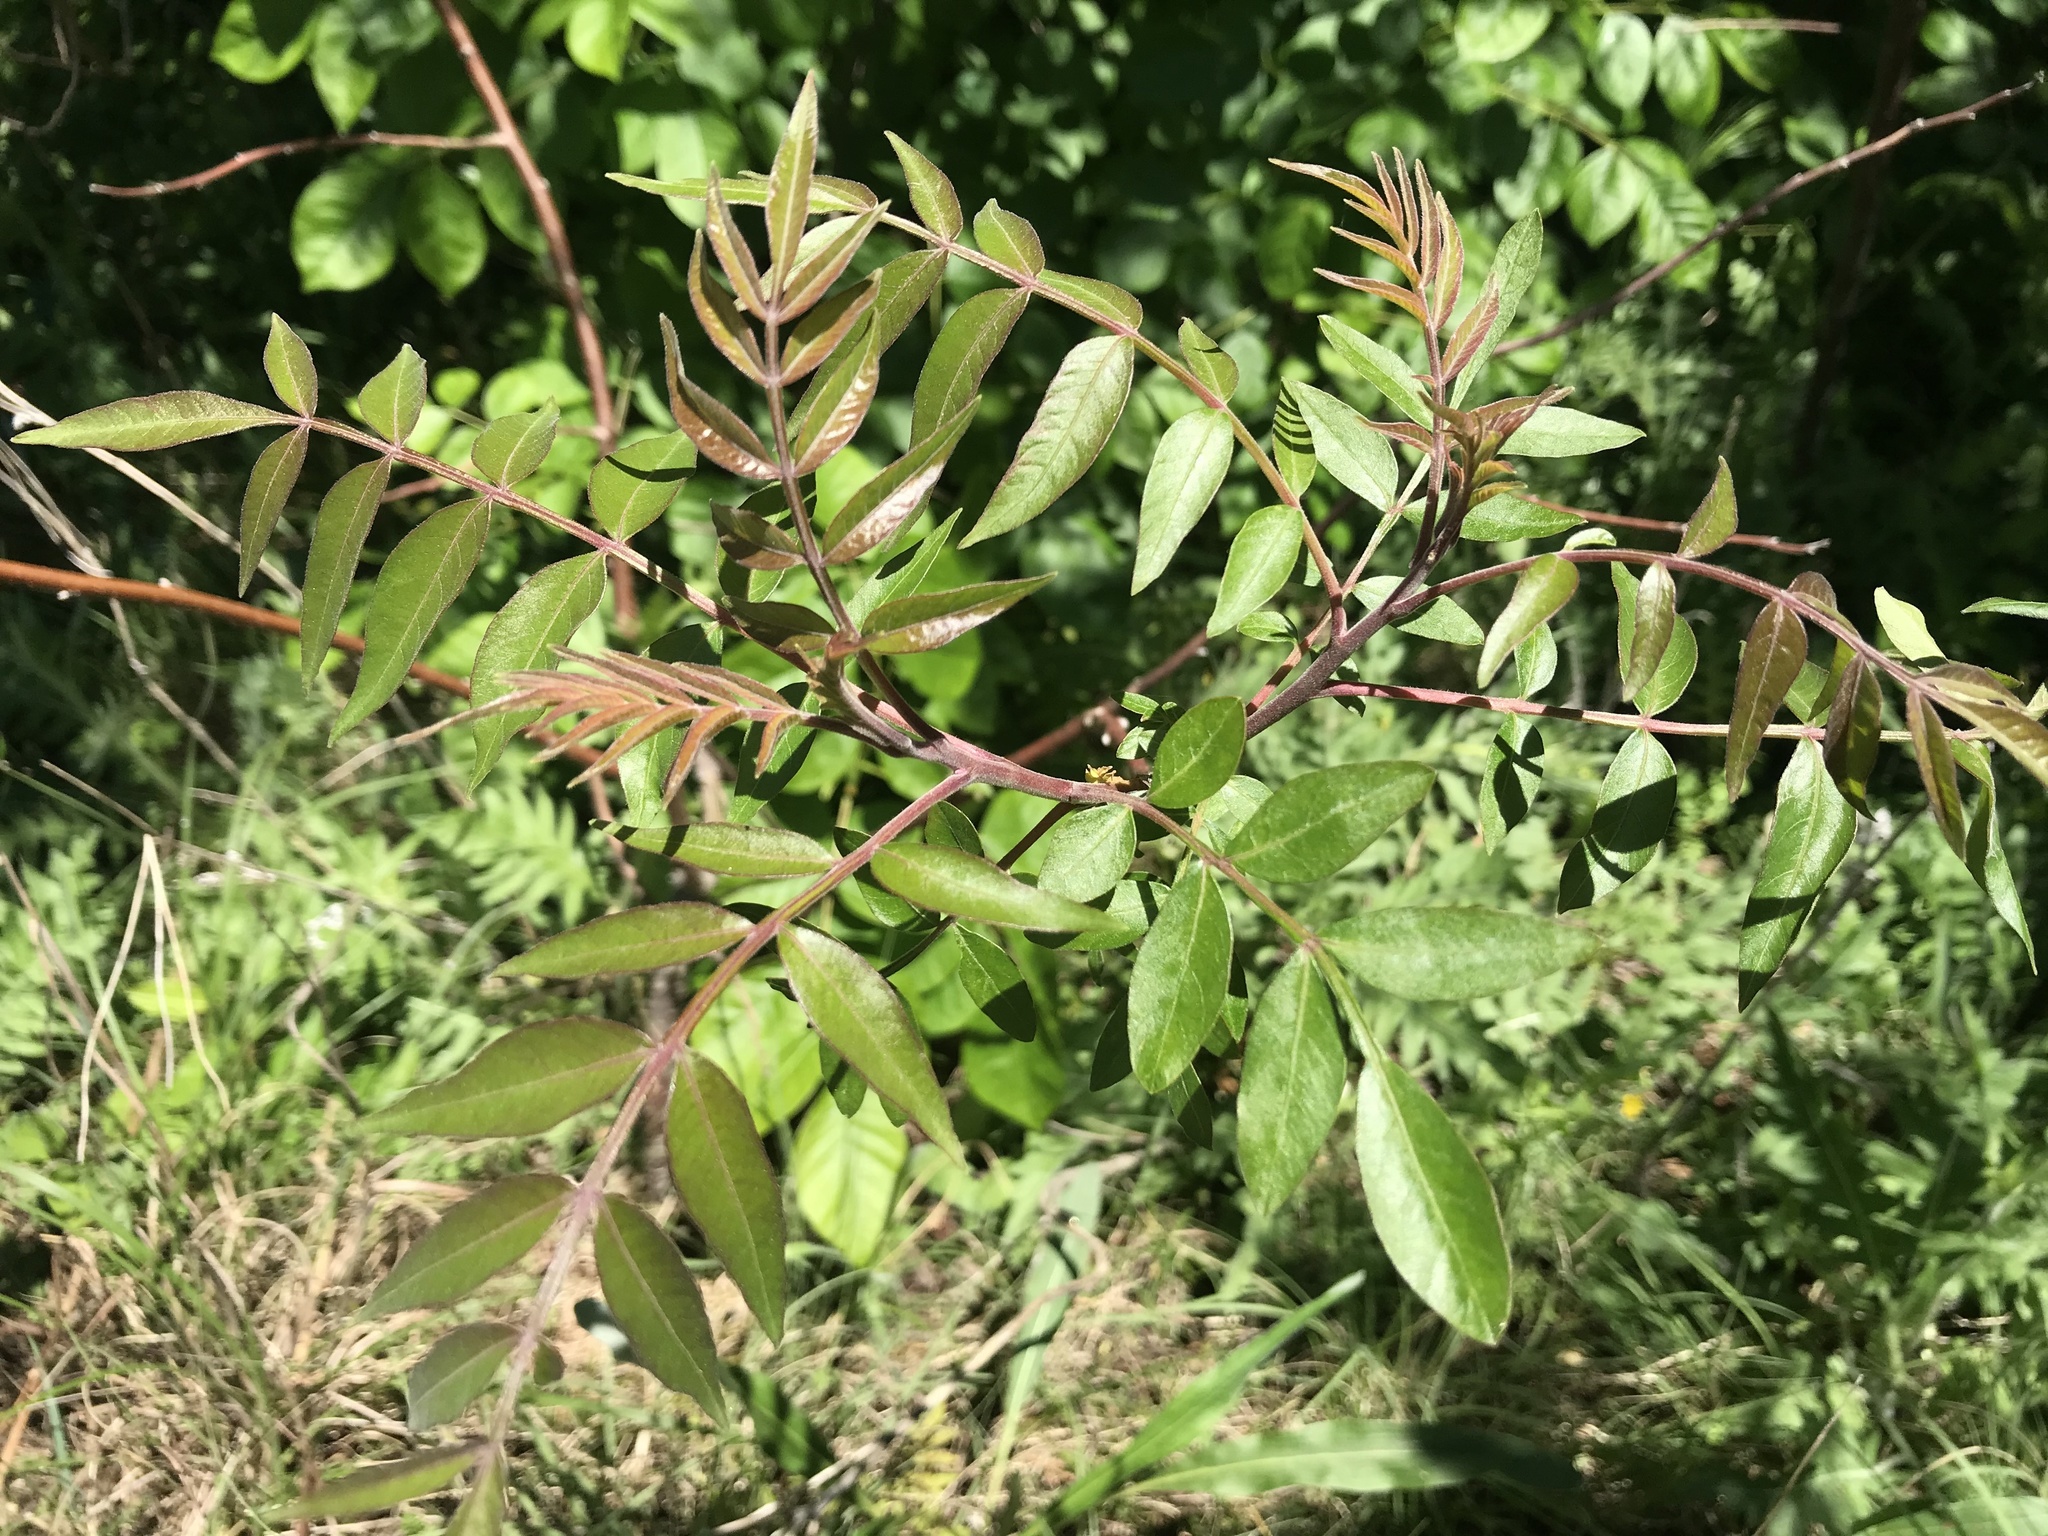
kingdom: Plantae
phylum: Tracheophyta
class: Magnoliopsida
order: Sapindales
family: Anacardiaceae
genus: Rhus
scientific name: Rhus lanceolata
